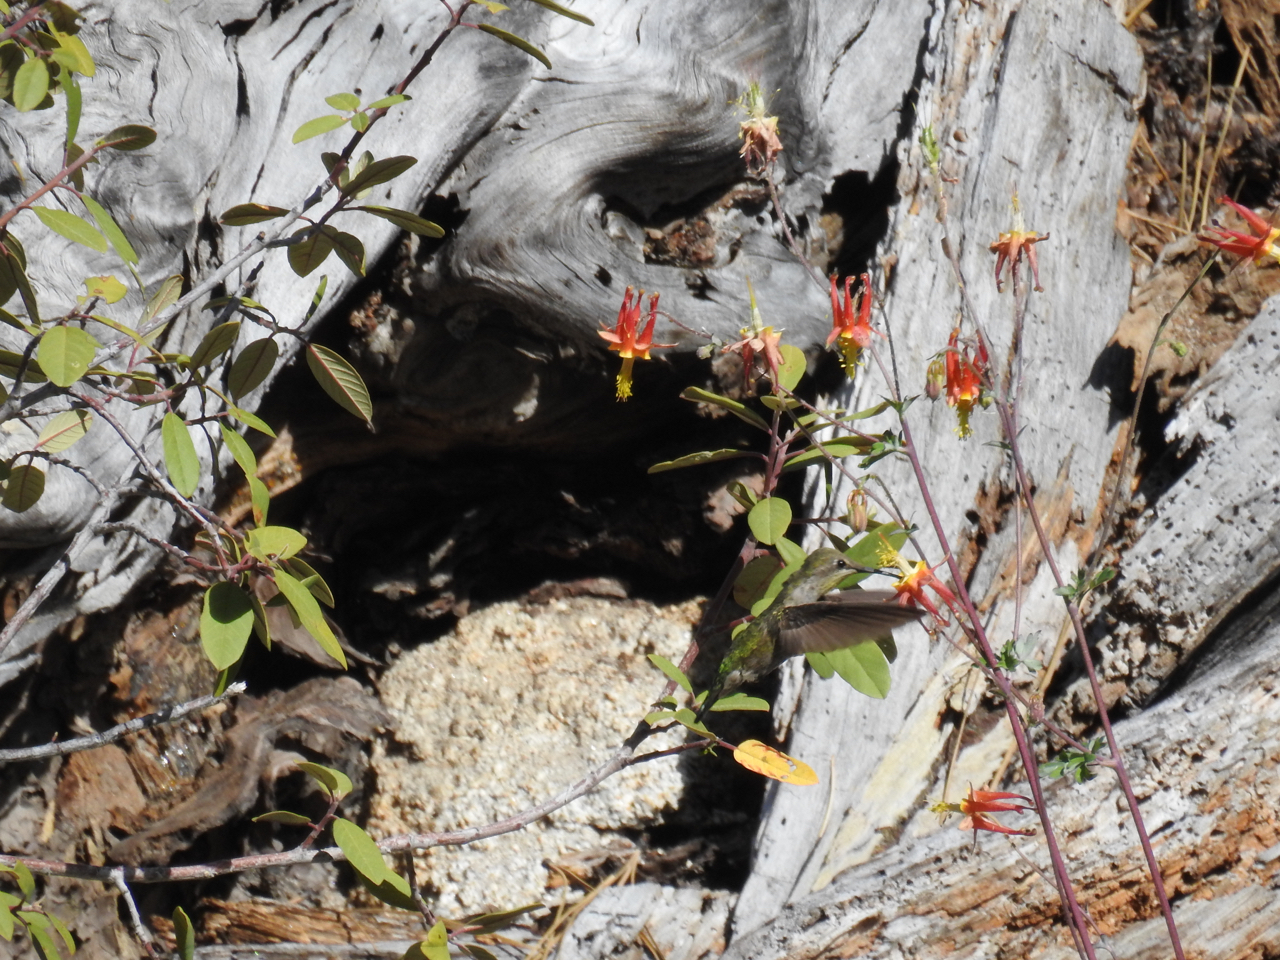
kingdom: Animalia
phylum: Chordata
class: Aves
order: Apodiformes
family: Trochilidae
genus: Calypte
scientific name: Calypte anna
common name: Anna's hummingbird
